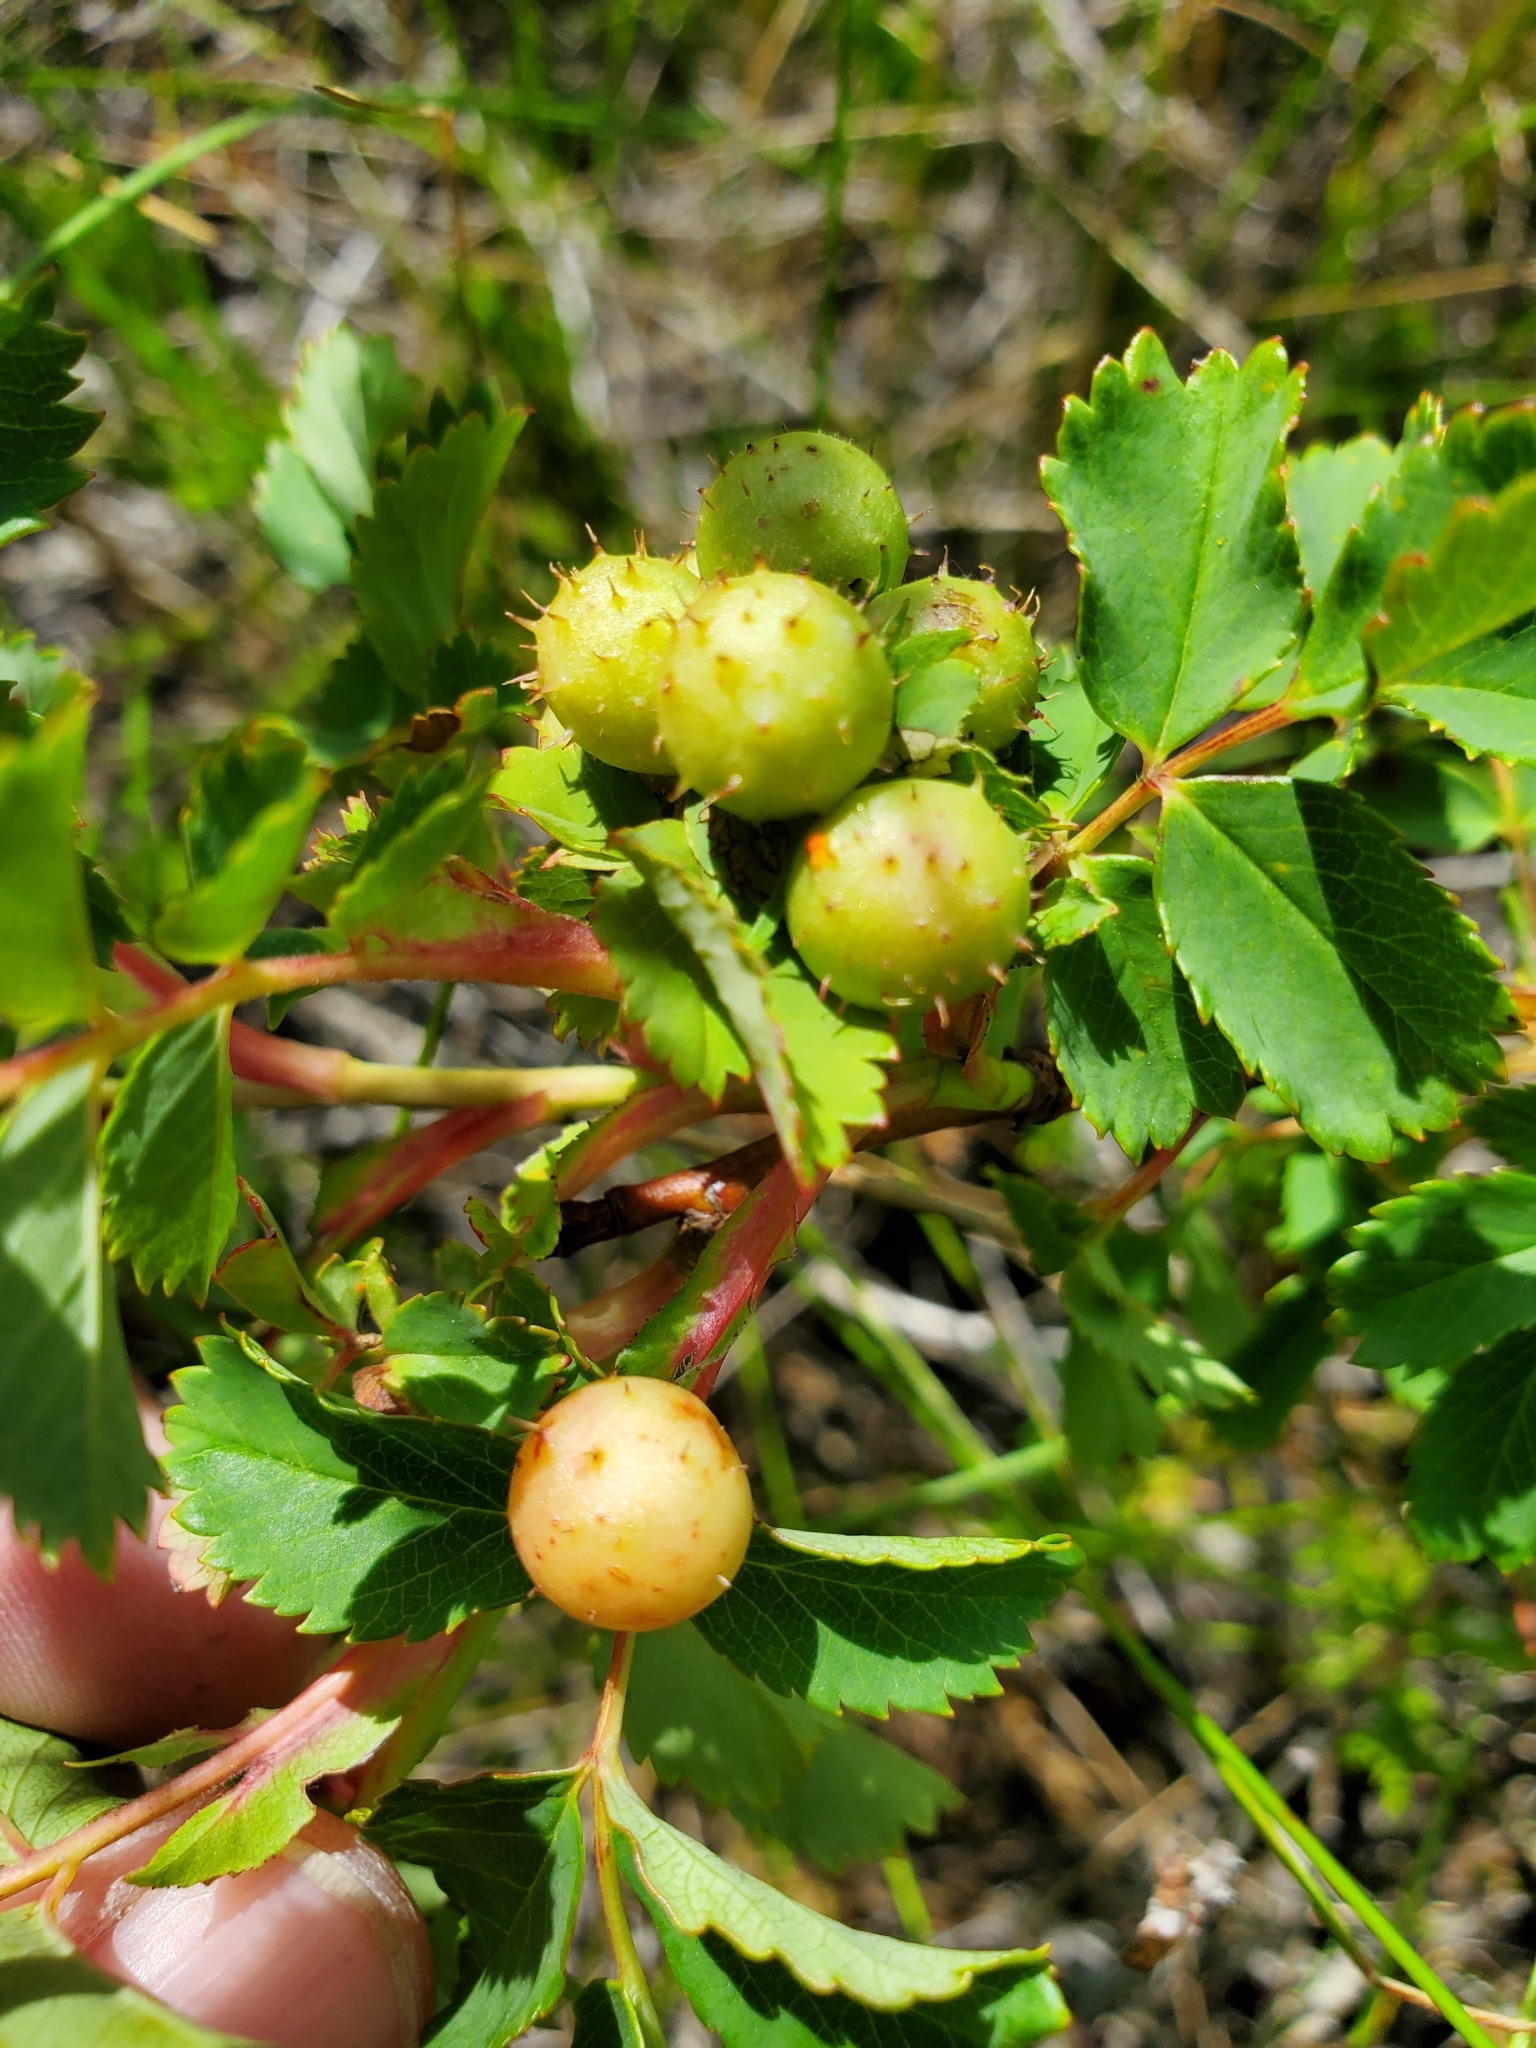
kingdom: Animalia
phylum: Arthropoda
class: Insecta
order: Hymenoptera
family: Cynipidae
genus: Diplolepis
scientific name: Diplolepis polita
